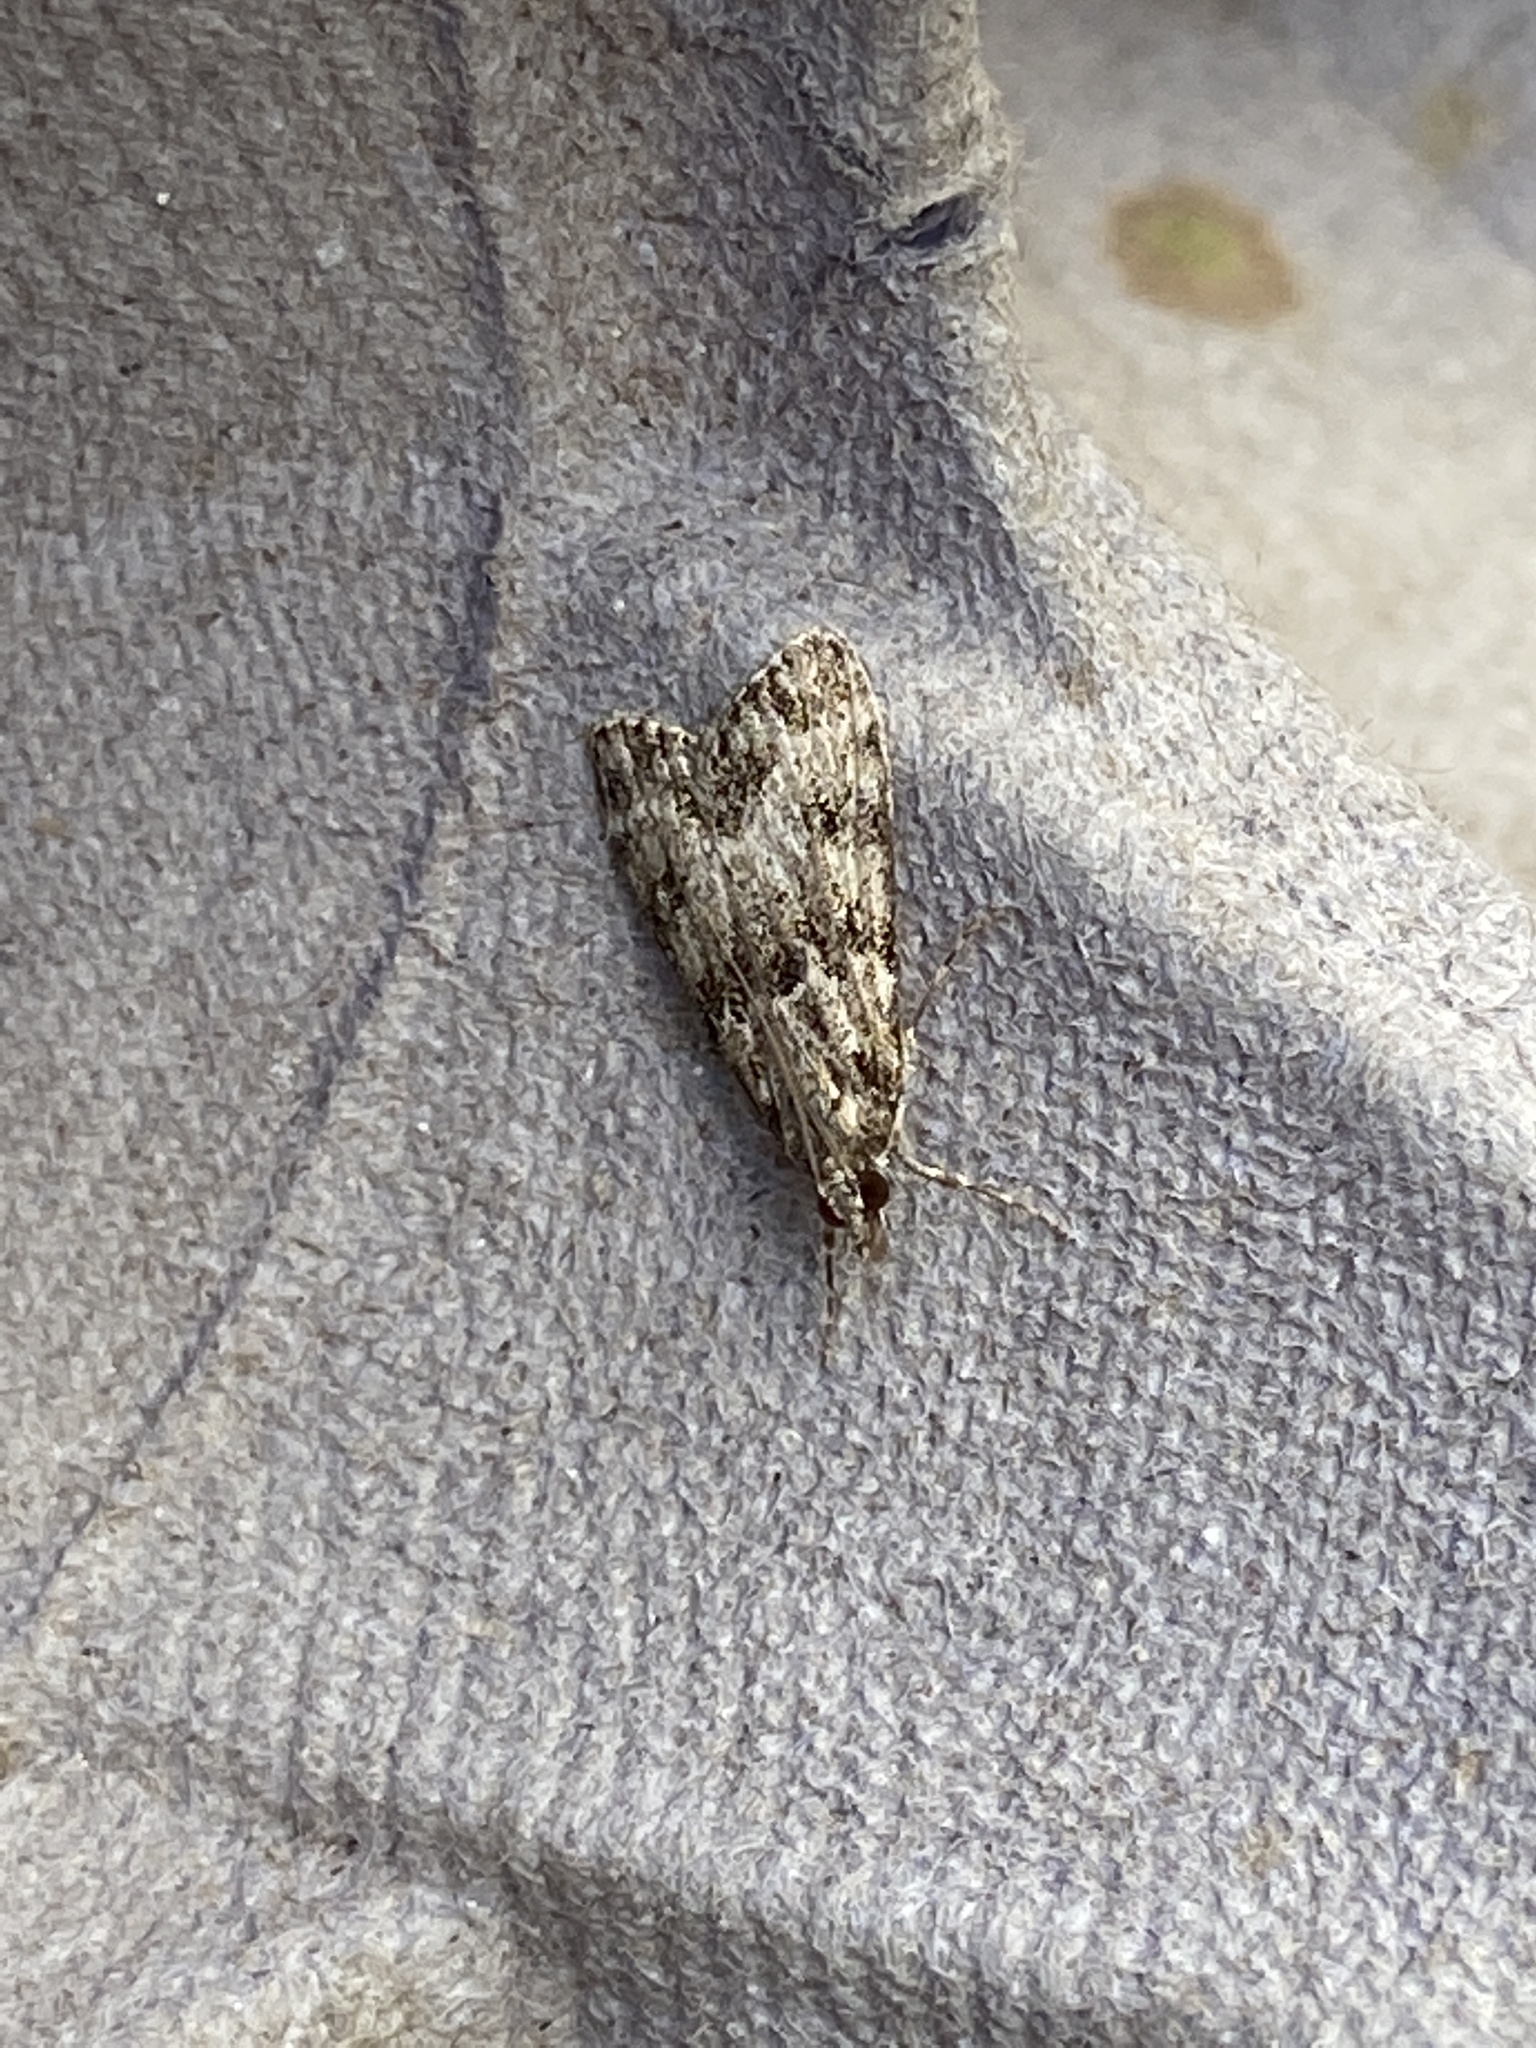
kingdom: Animalia
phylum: Arthropoda
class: Insecta
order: Lepidoptera
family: Crambidae
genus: Eudonia
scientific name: Eudonia mercurella
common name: Small grey
